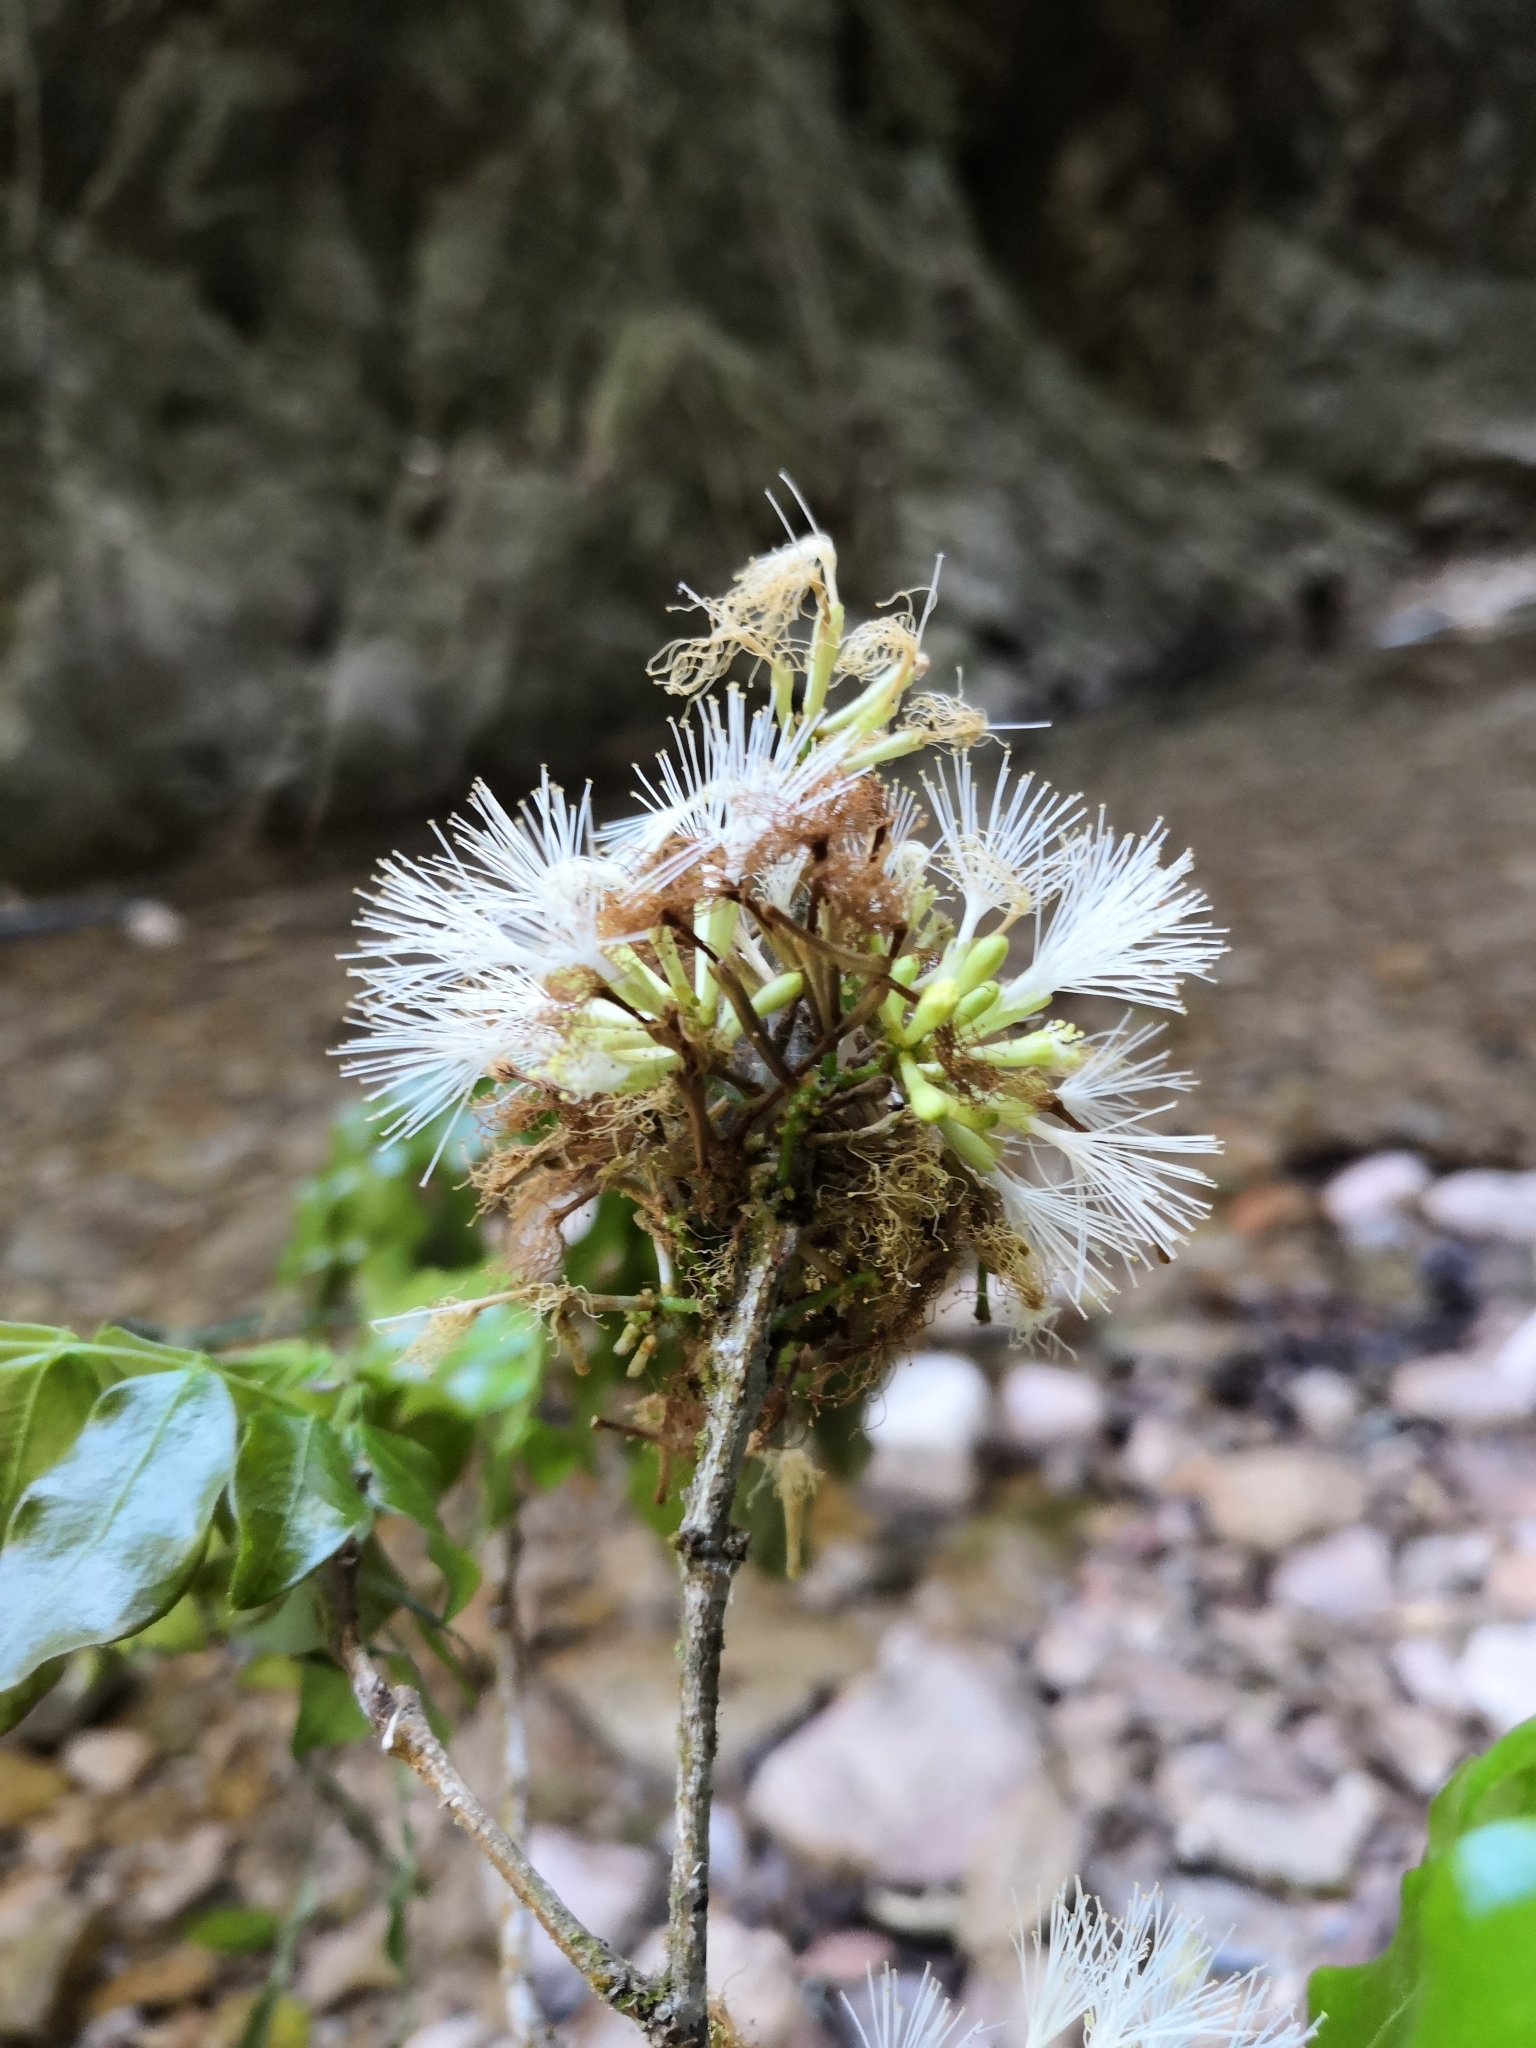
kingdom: Plantae
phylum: Tracheophyta
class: Magnoliopsida
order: Fabales
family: Fabaceae
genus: Zygia
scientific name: Zygia conzattii
